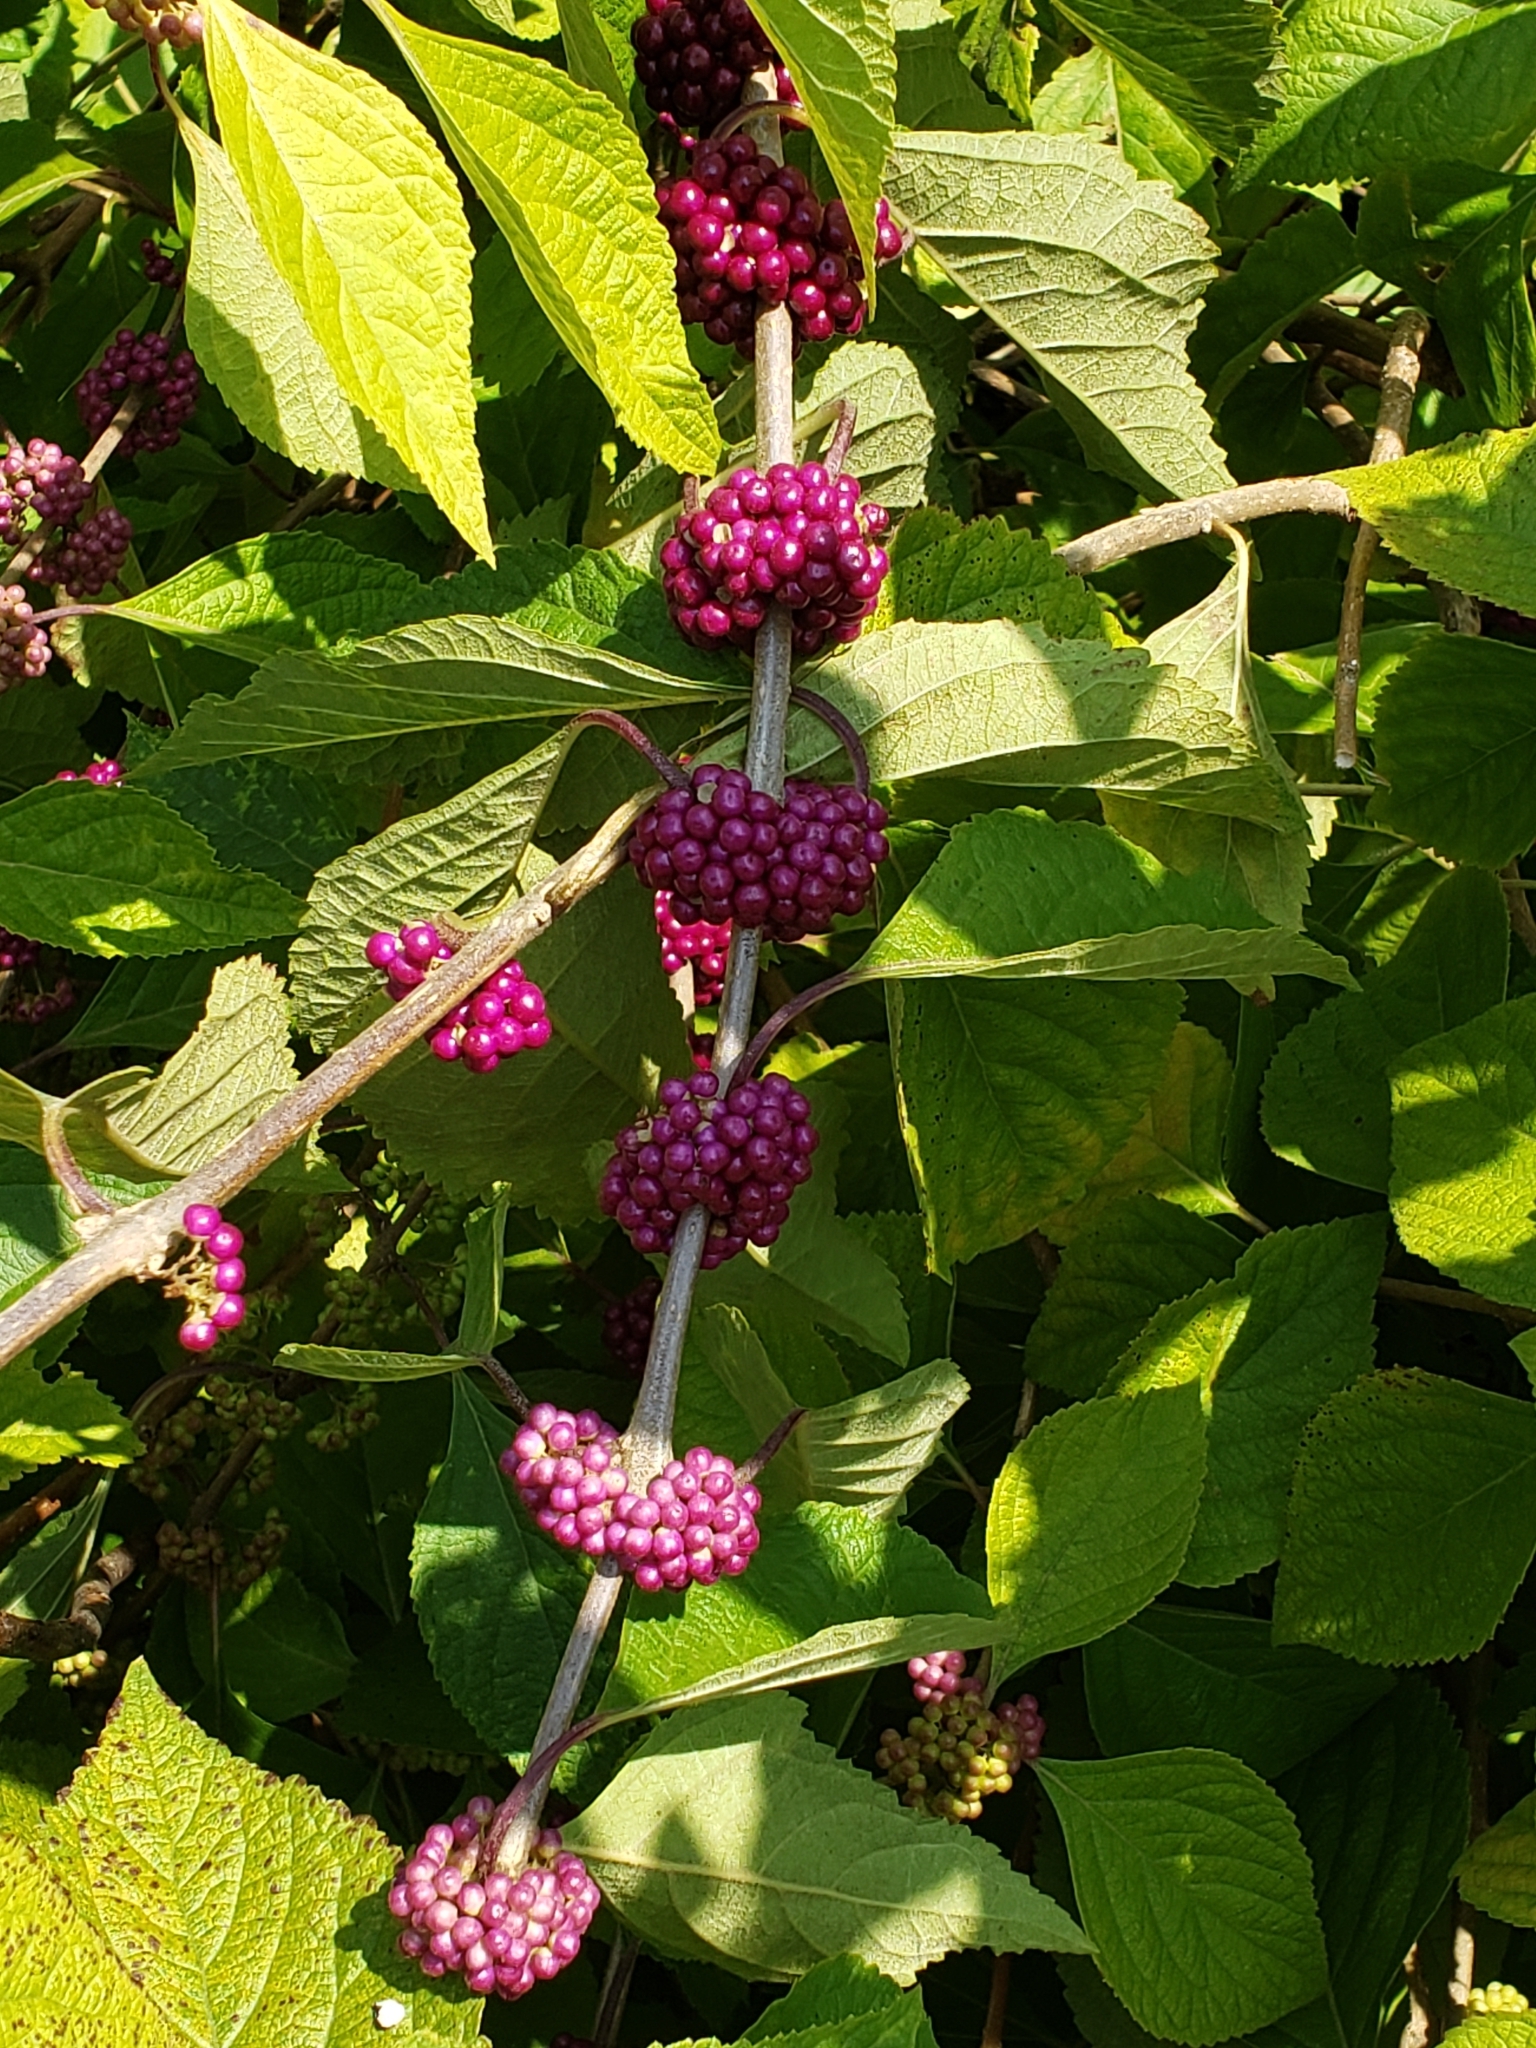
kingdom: Plantae
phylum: Tracheophyta
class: Magnoliopsida
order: Lamiales
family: Lamiaceae
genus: Callicarpa
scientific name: Callicarpa americana
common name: American beautyberry
